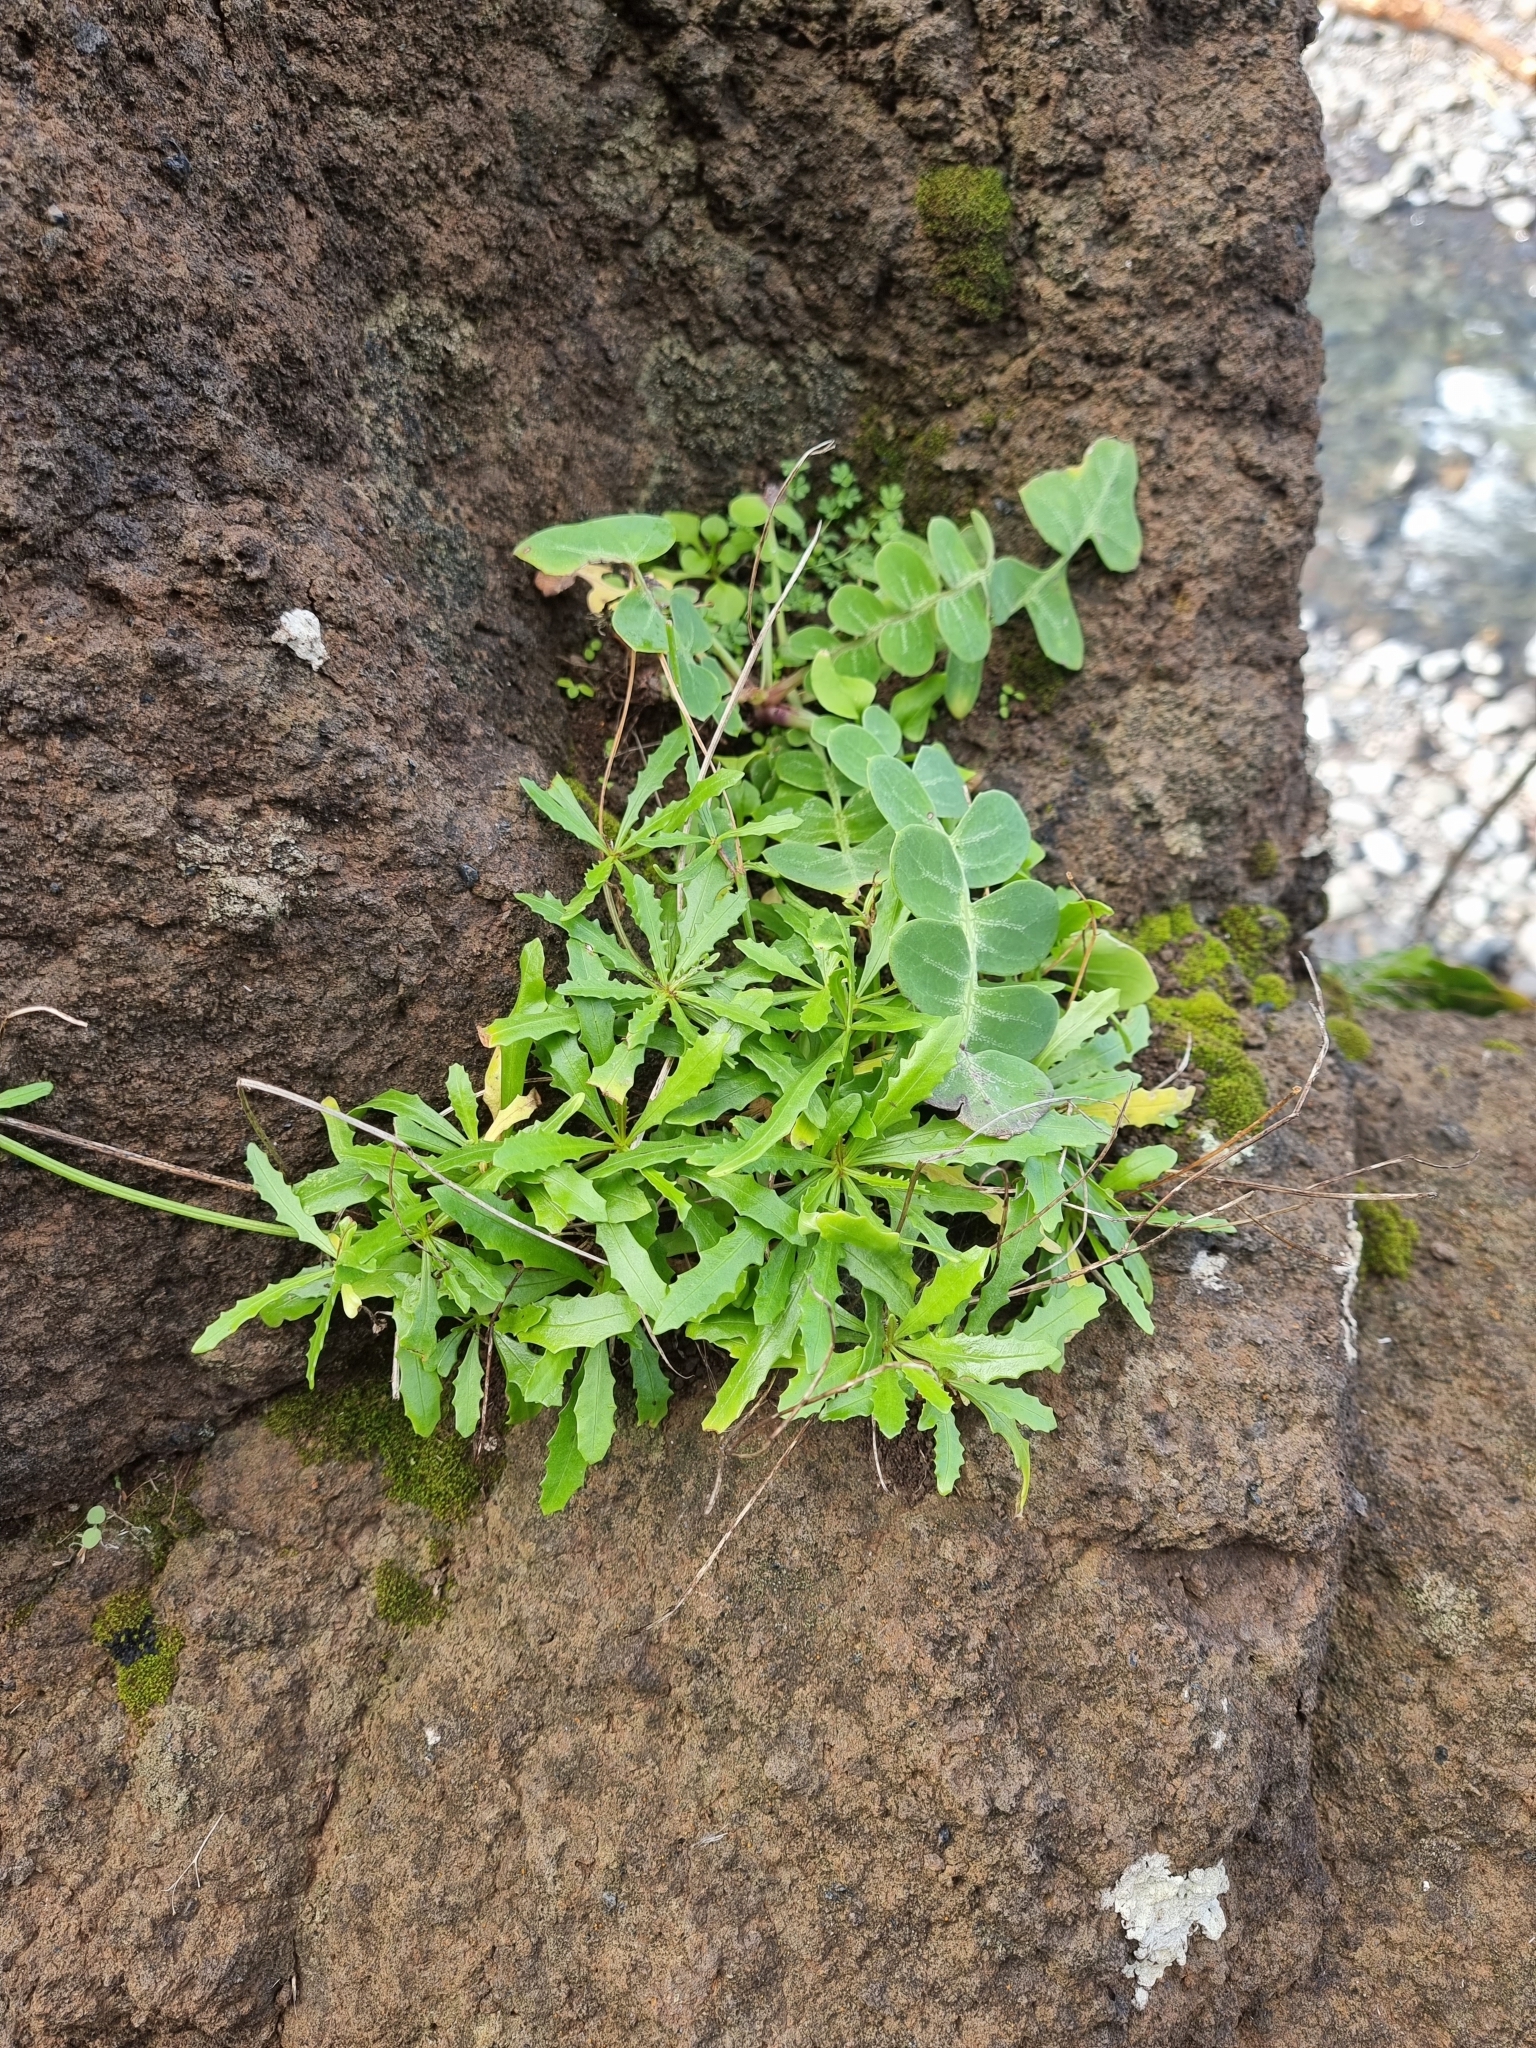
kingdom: Plantae
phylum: Tracheophyta
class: Magnoliopsida
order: Asterales
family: Asteraceae
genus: Tolpis
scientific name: Tolpis succulenta
